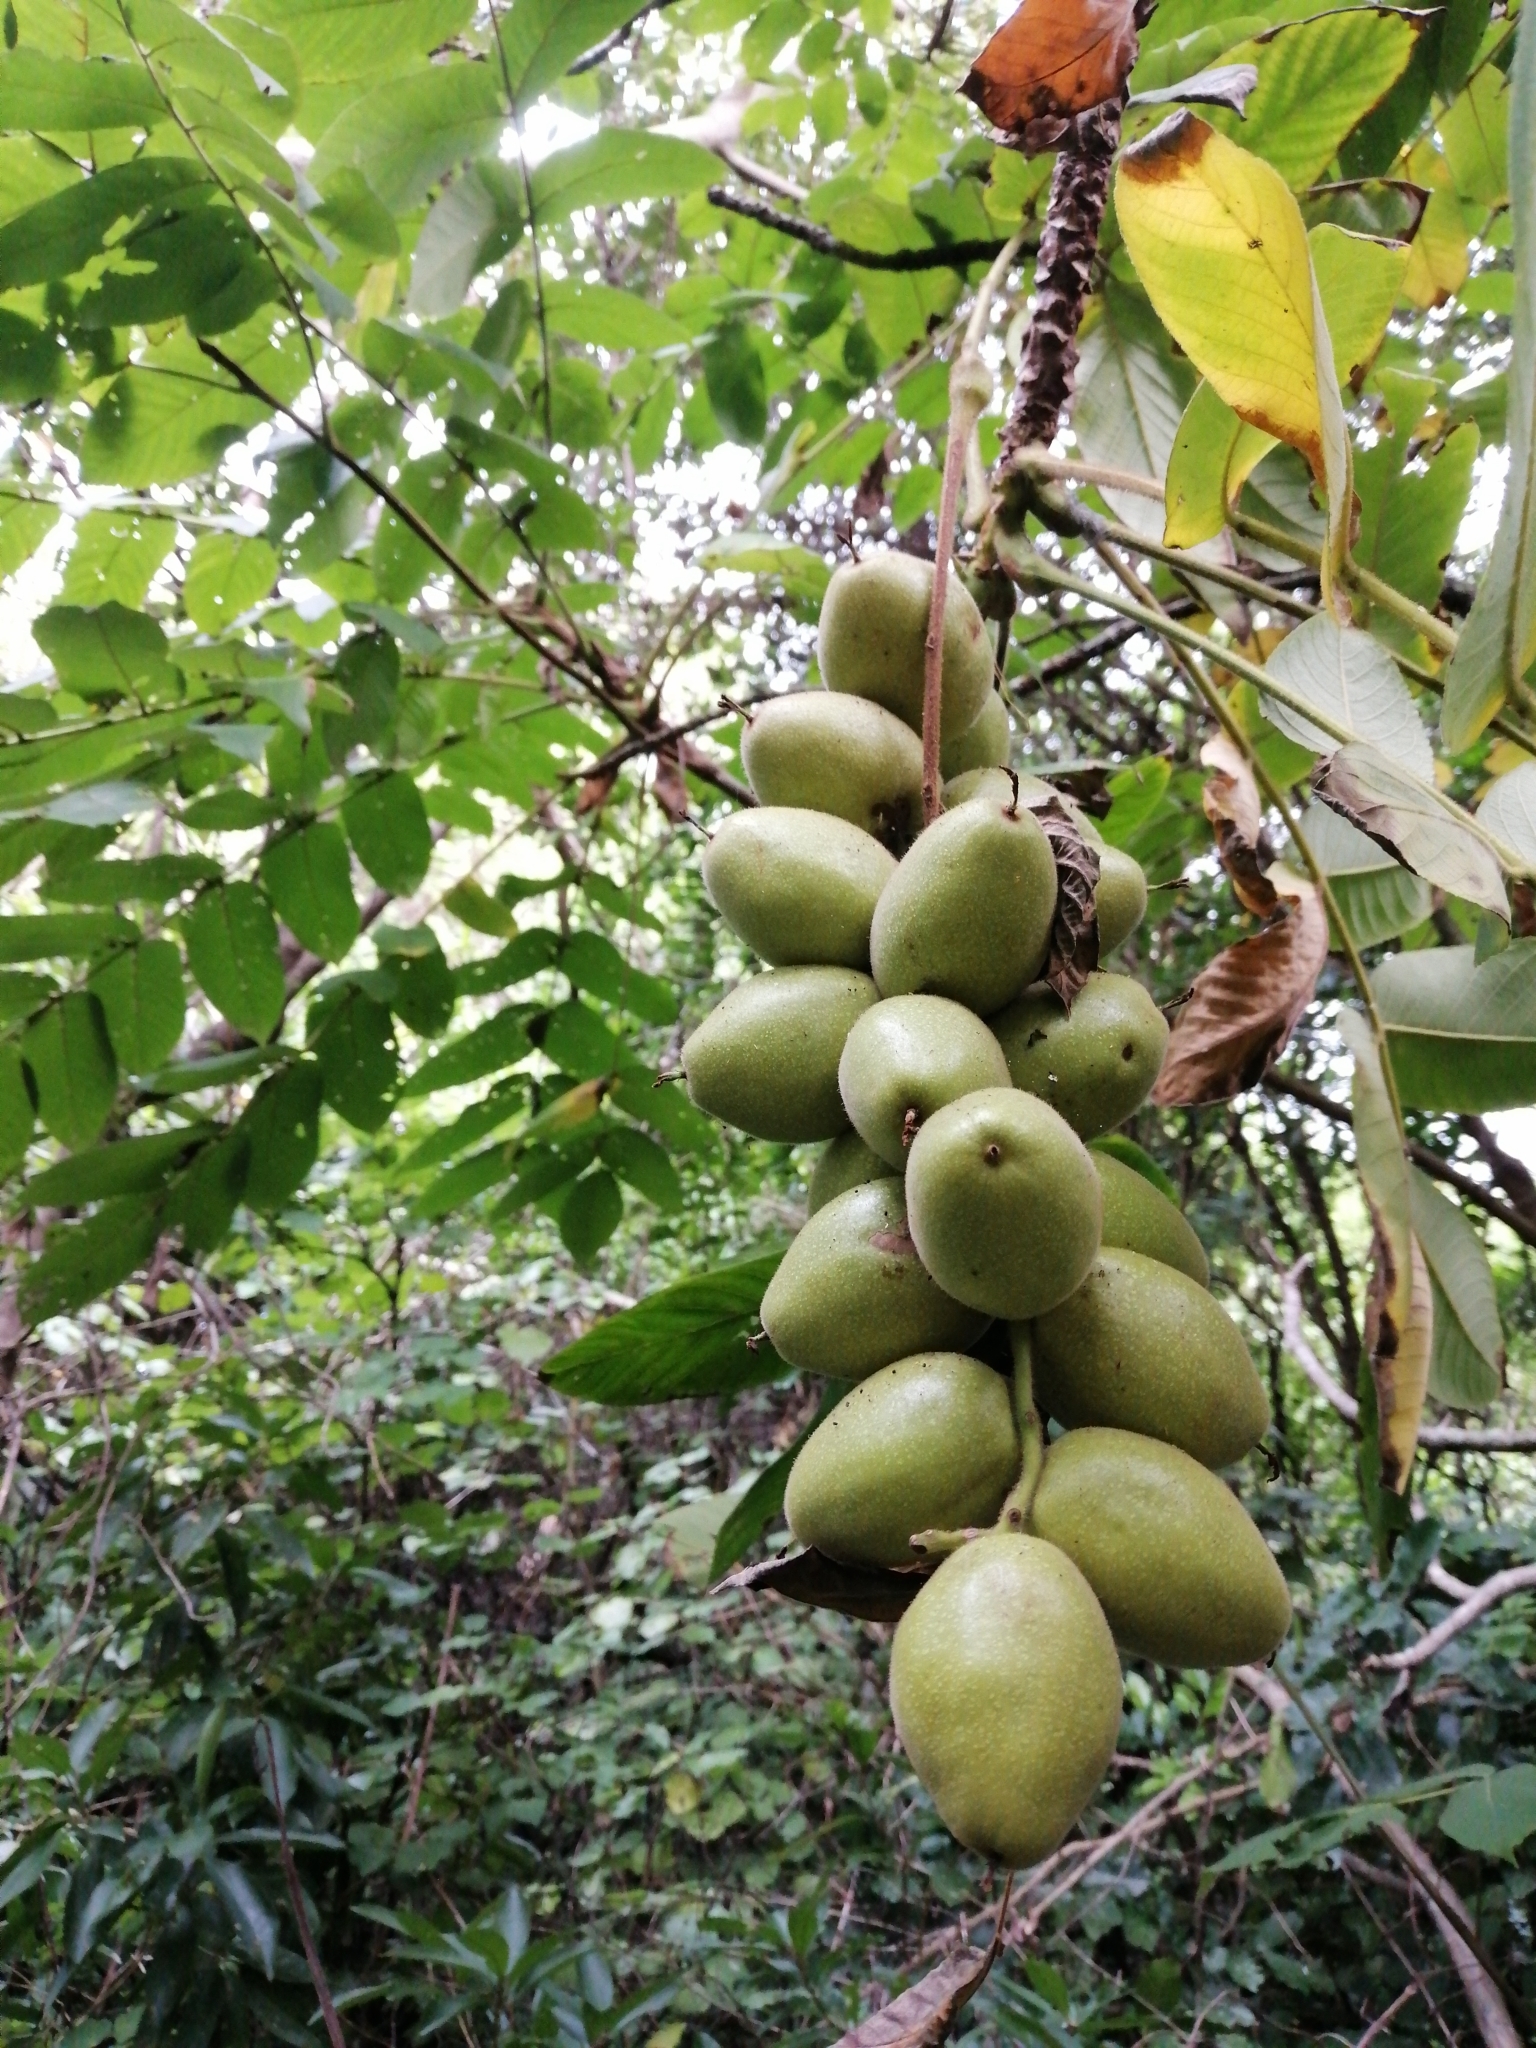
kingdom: Plantae
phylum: Tracheophyta
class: Magnoliopsida
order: Fagales
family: Juglandaceae
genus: Juglans
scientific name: Juglans ailantifolia
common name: Japanese walnut
